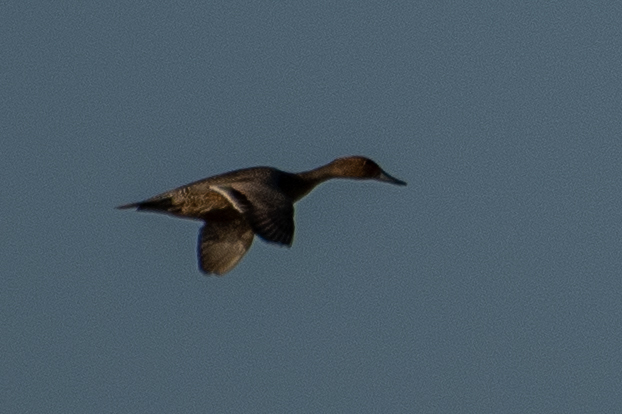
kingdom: Animalia
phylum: Chordata
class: Aves
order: Anseriformes
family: Anatidae
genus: Anas
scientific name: Anas acuta
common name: Northern pintail
